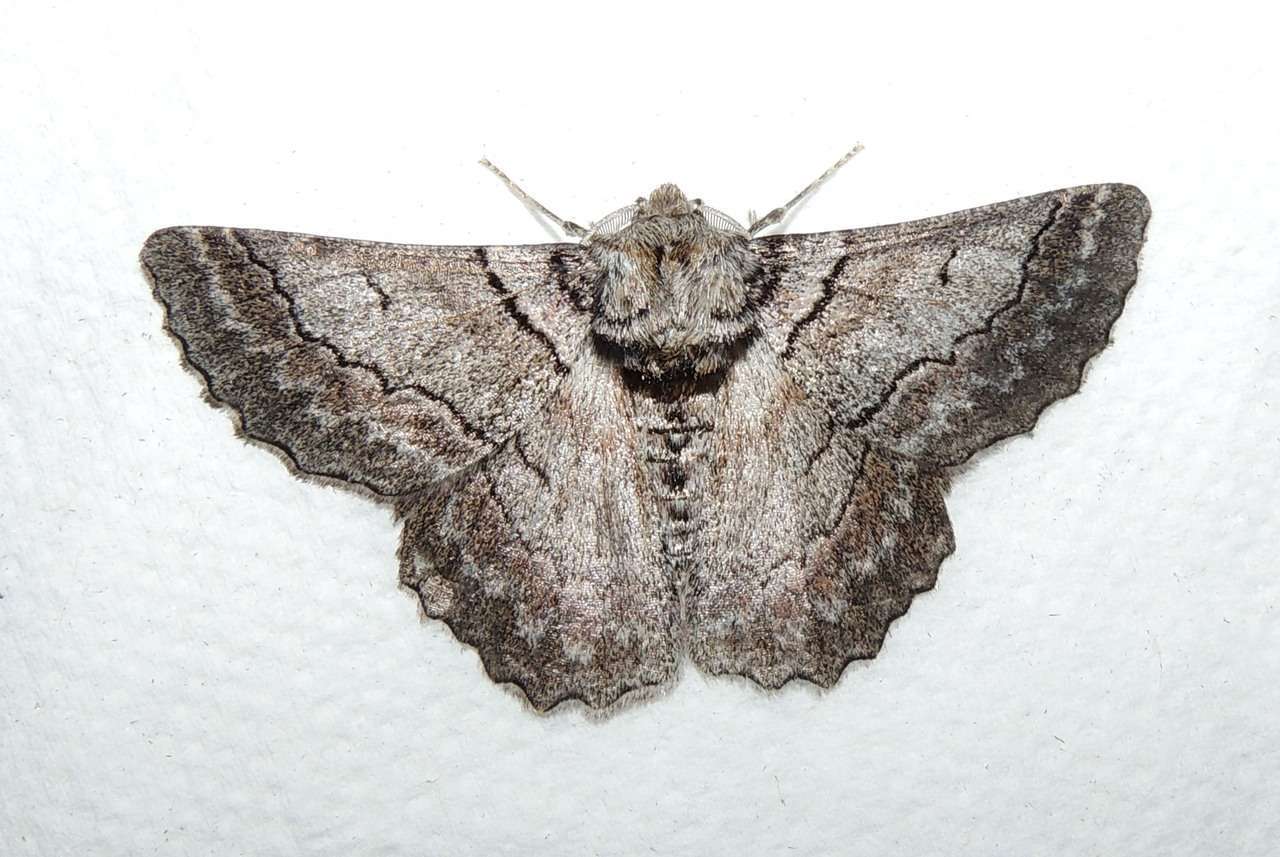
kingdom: Animalia
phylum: Arthropoda
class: Insecta
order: Lepidoptera
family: Geometridae
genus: Hypobapta
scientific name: Hypobapta tachyhalotaria
